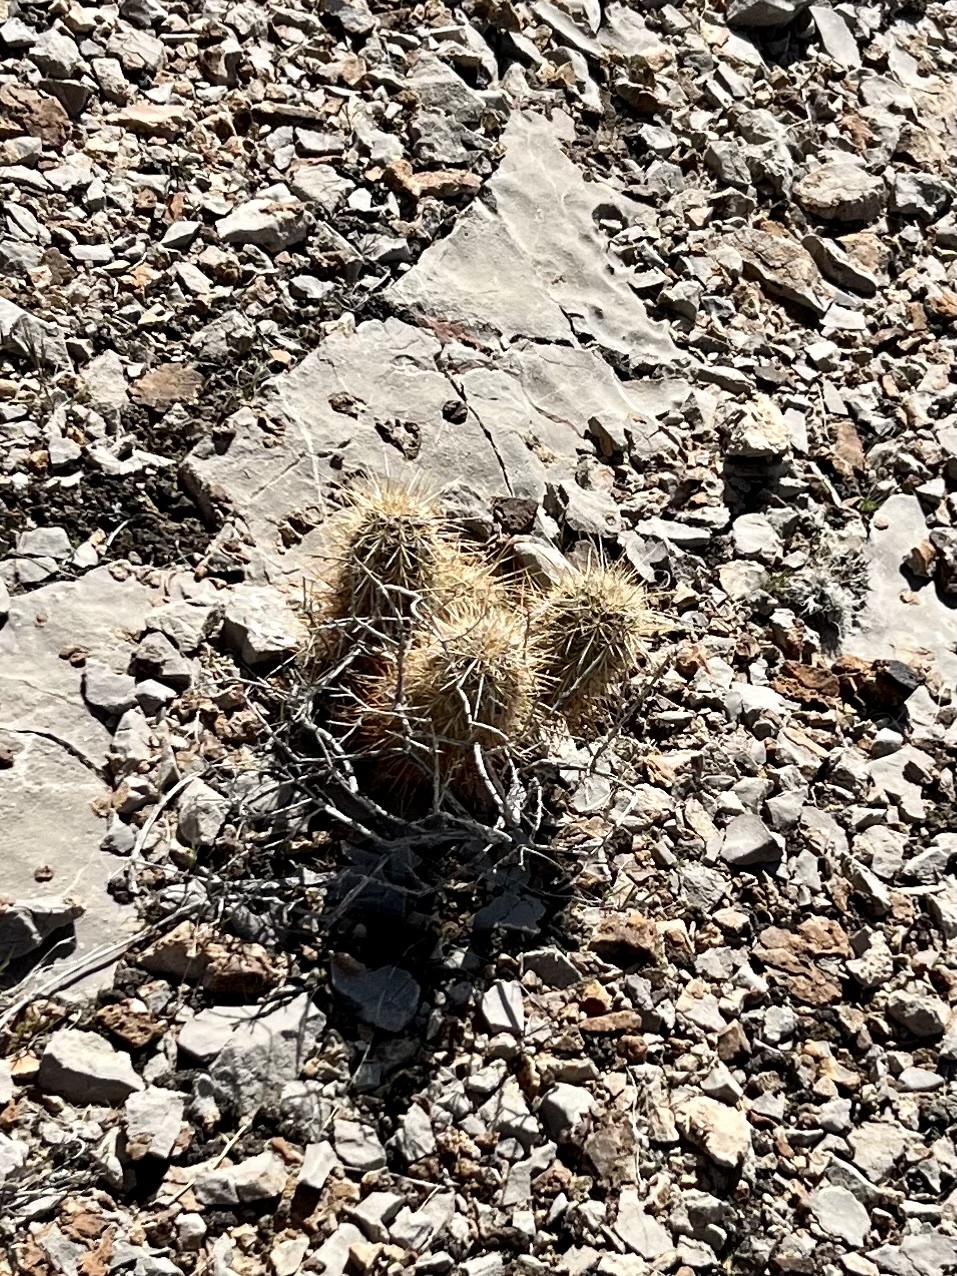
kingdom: Plantae
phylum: Tracheophyta
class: Magnoliopsida
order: Caryophyllales
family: Cactaceae
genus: Echinocereus
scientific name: Echinocereus engelmannii
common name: Engelmann's hedgehog cactus
